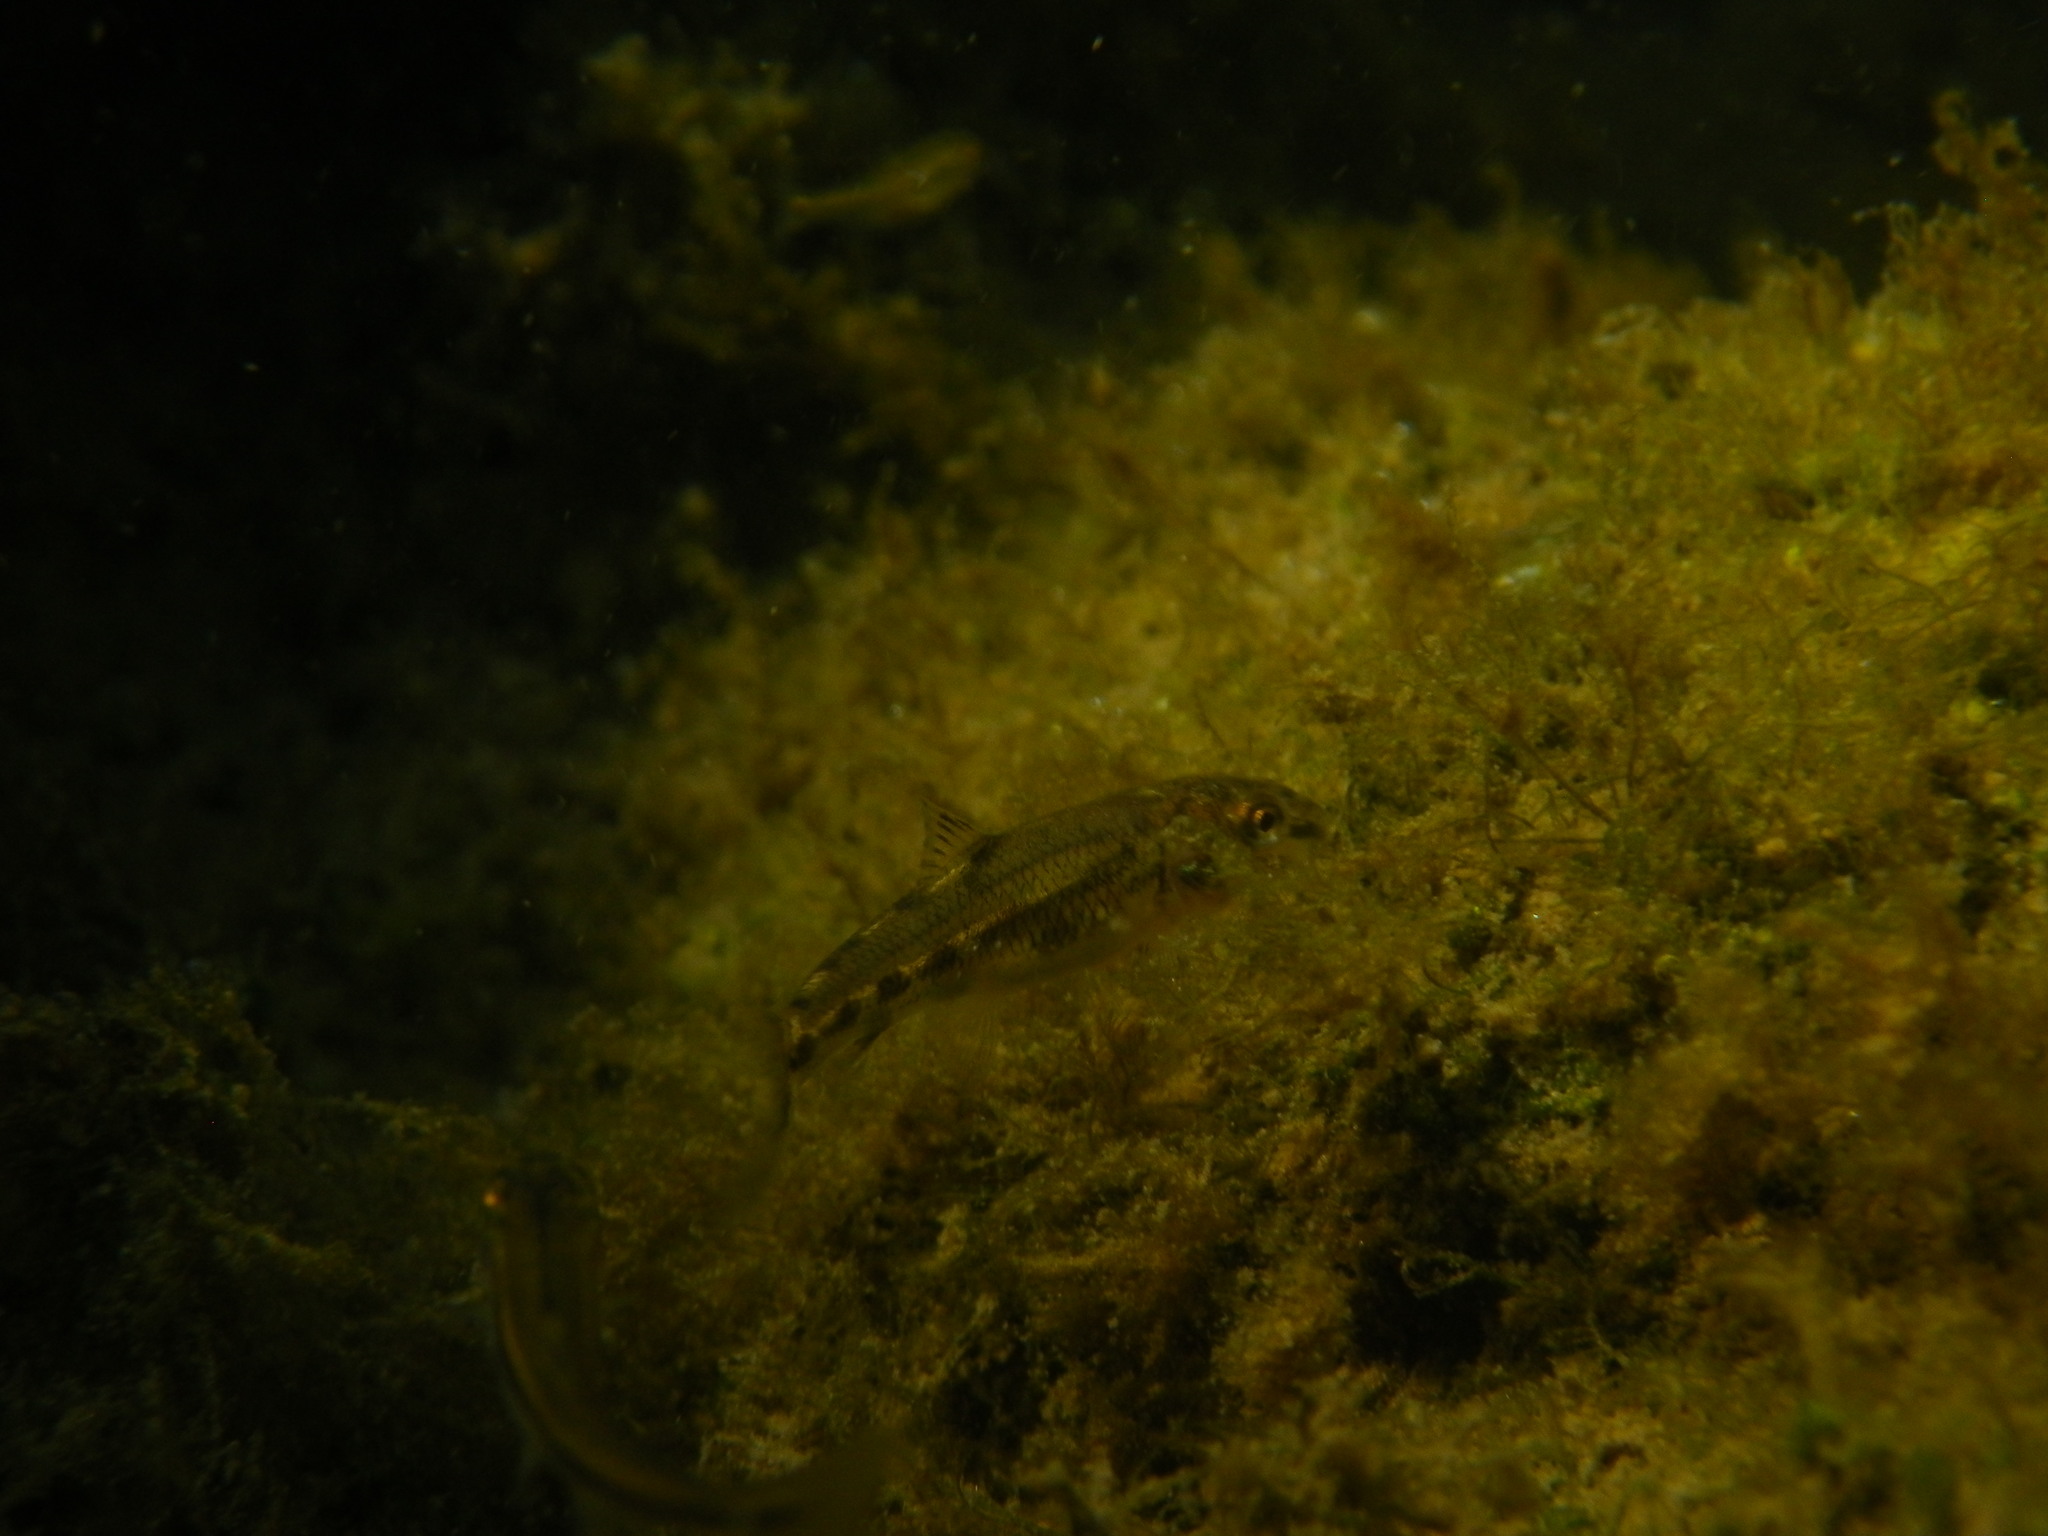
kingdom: Animalia
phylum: Chordata
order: Cypriniformes
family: Cyprinidae
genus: Gobio
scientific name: Gobio occitaniae
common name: Languedoc gudgeon
